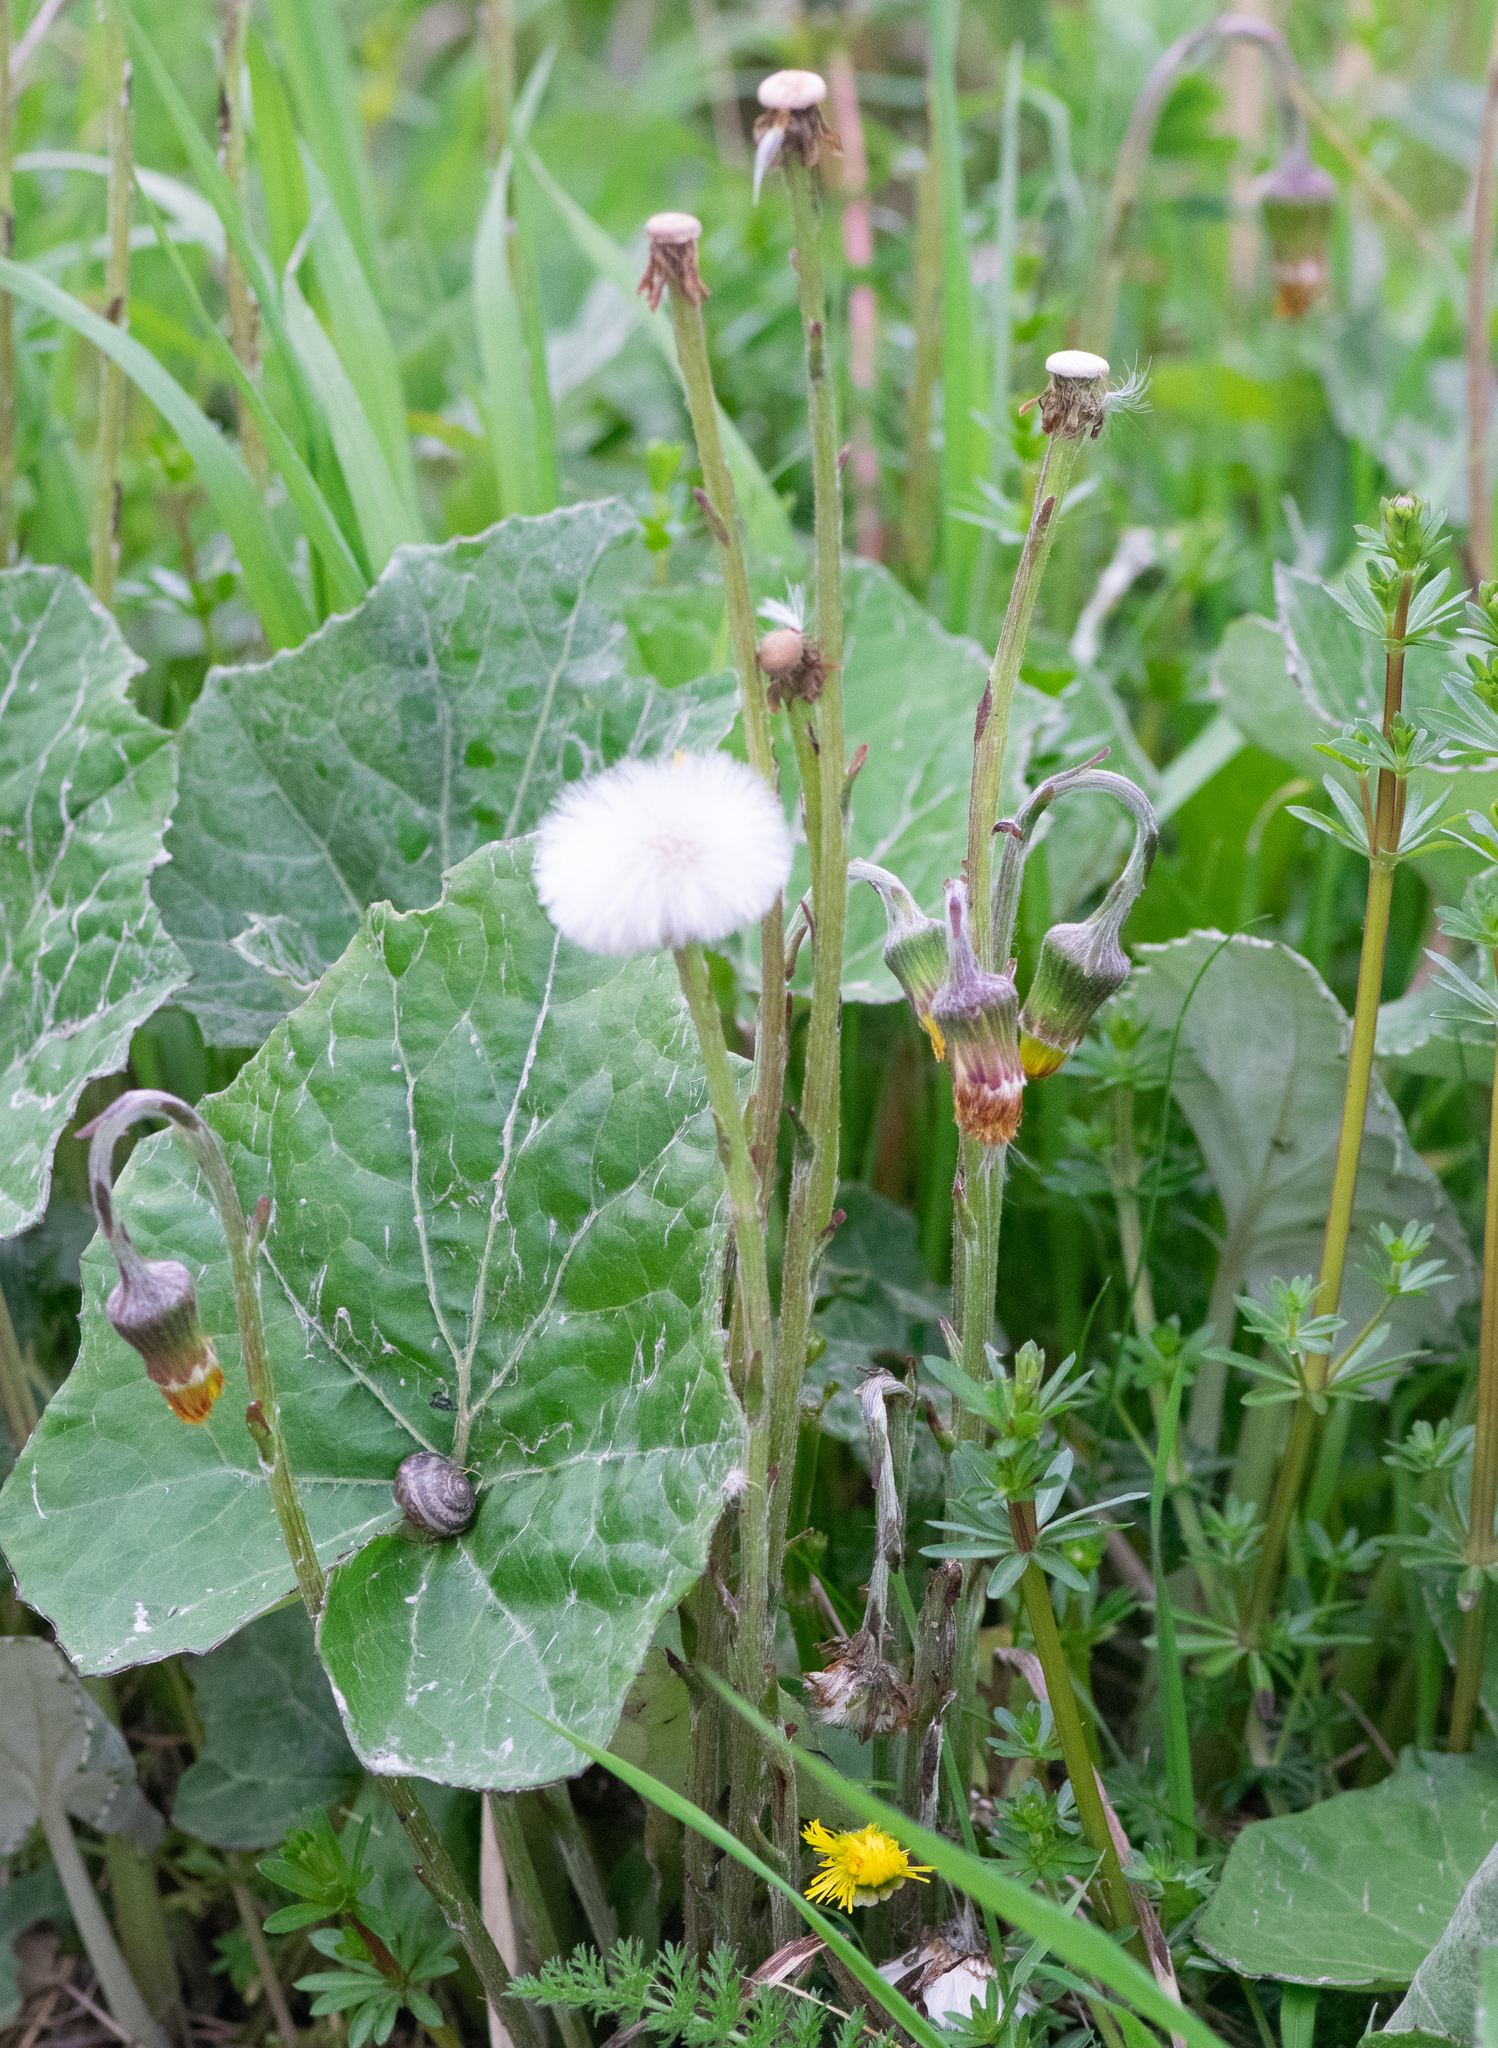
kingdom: Plantae
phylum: Tracheophyta
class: Magnoliopsida
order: Asterales
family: Asteraceae
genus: Tussilago
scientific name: Tussilago farfara
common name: Coltsfoot
